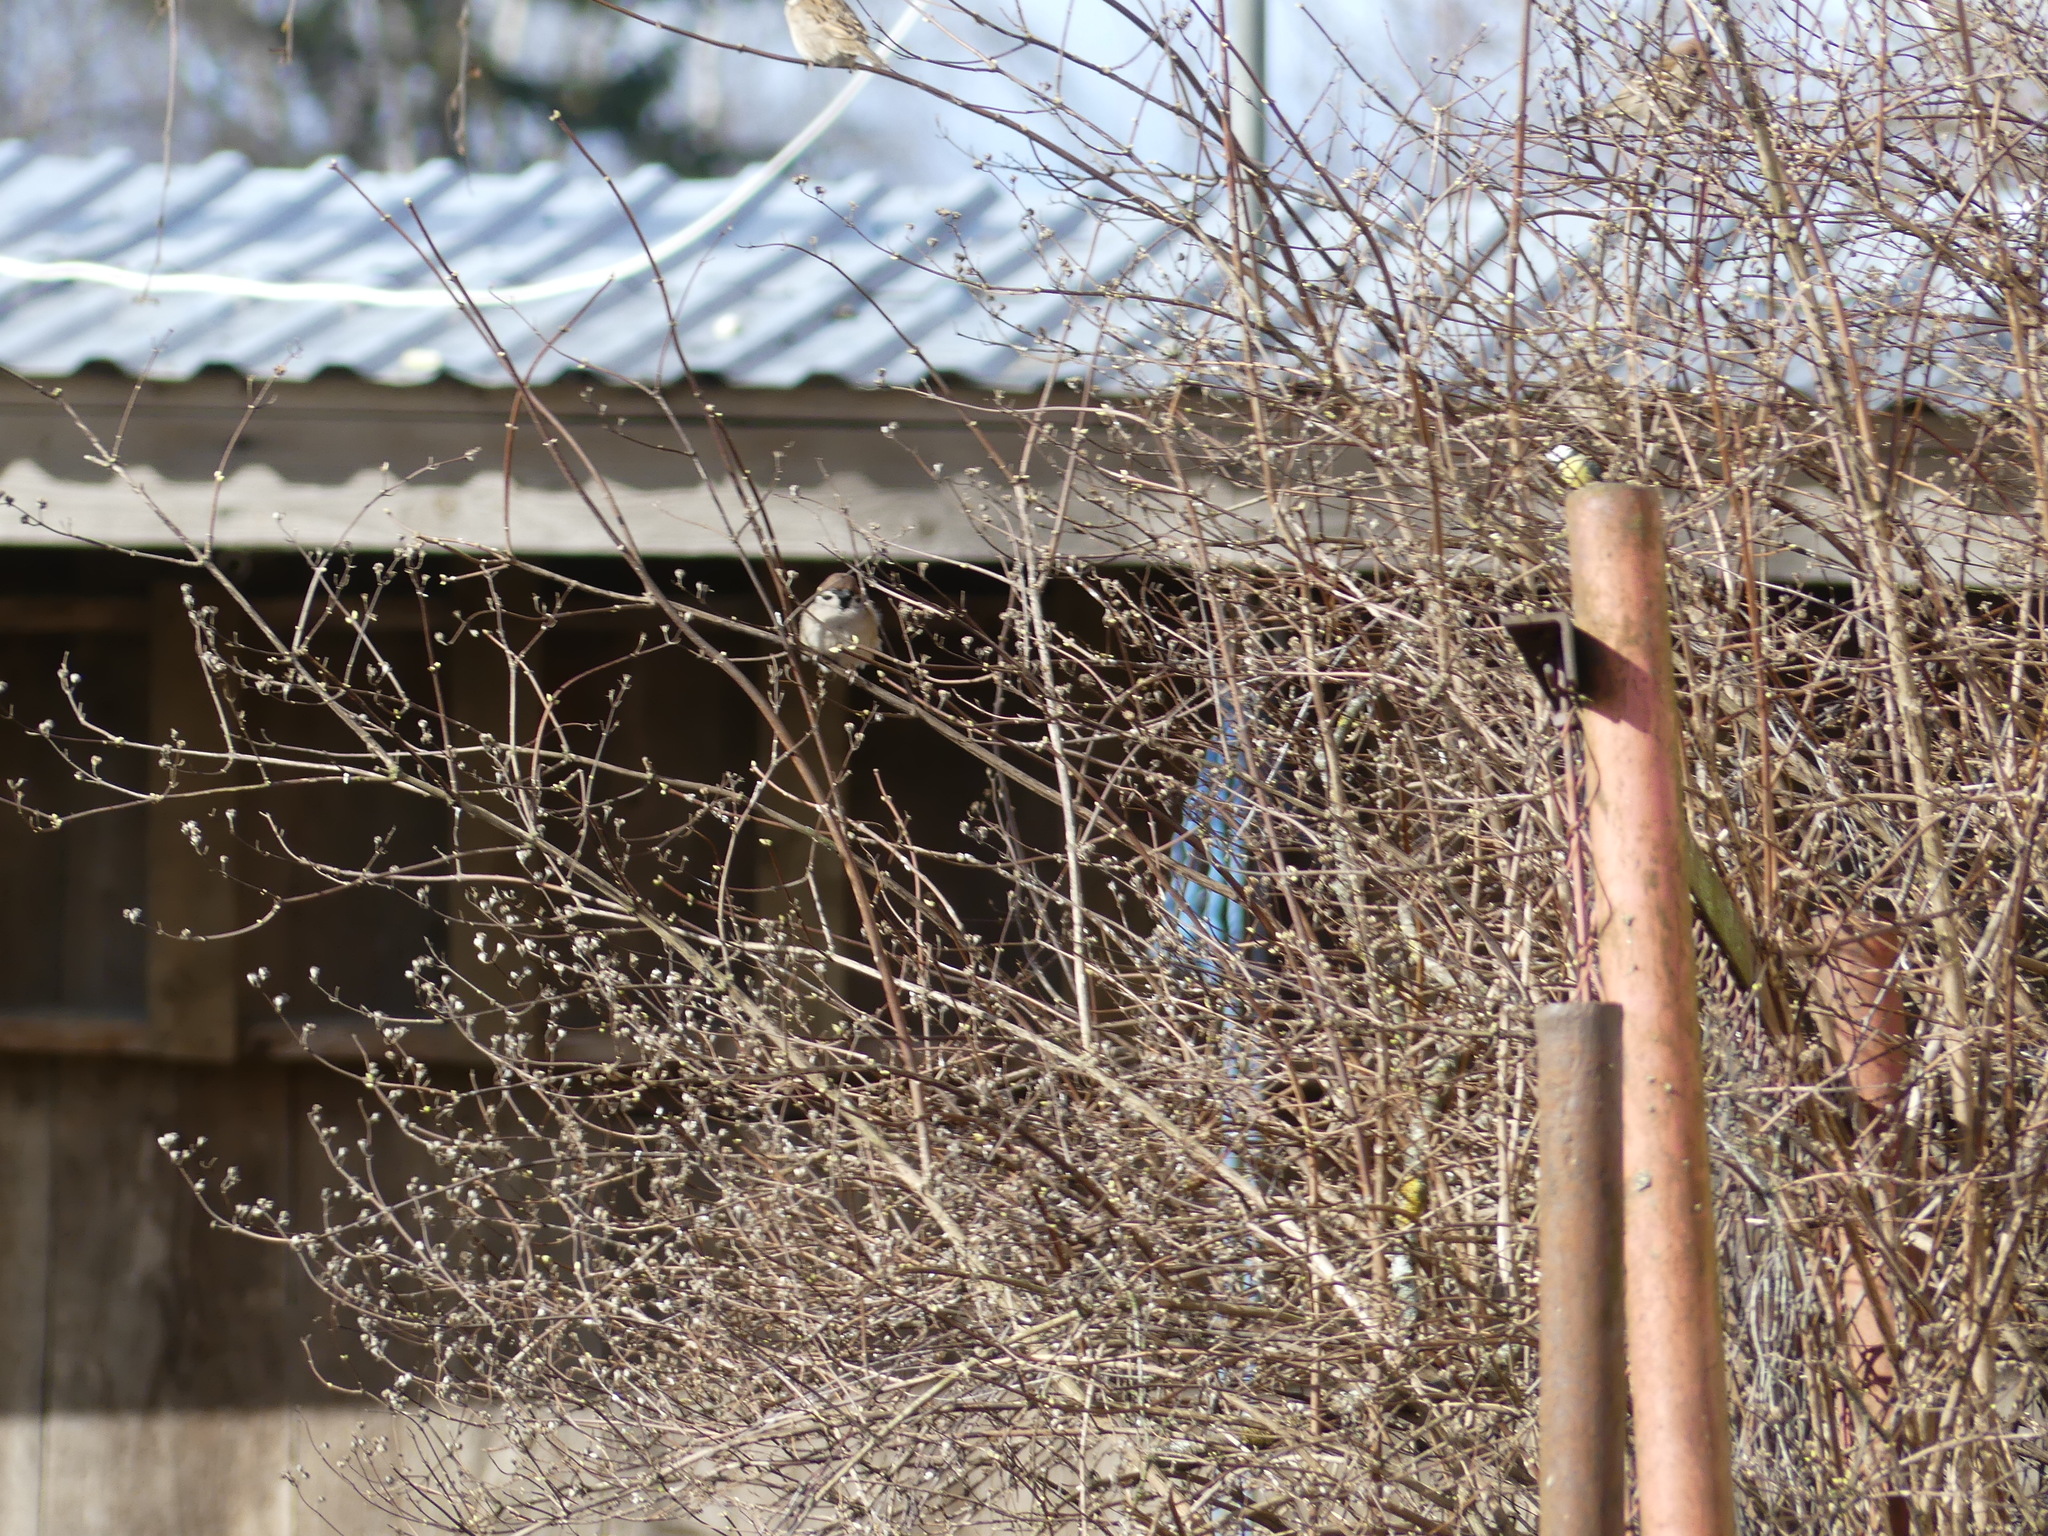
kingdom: Animalia
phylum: Chordata
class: Aves
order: Passeriformes
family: Passeridae
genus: Passer
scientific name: Passer montanus
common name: Eurasian tree sparrow
